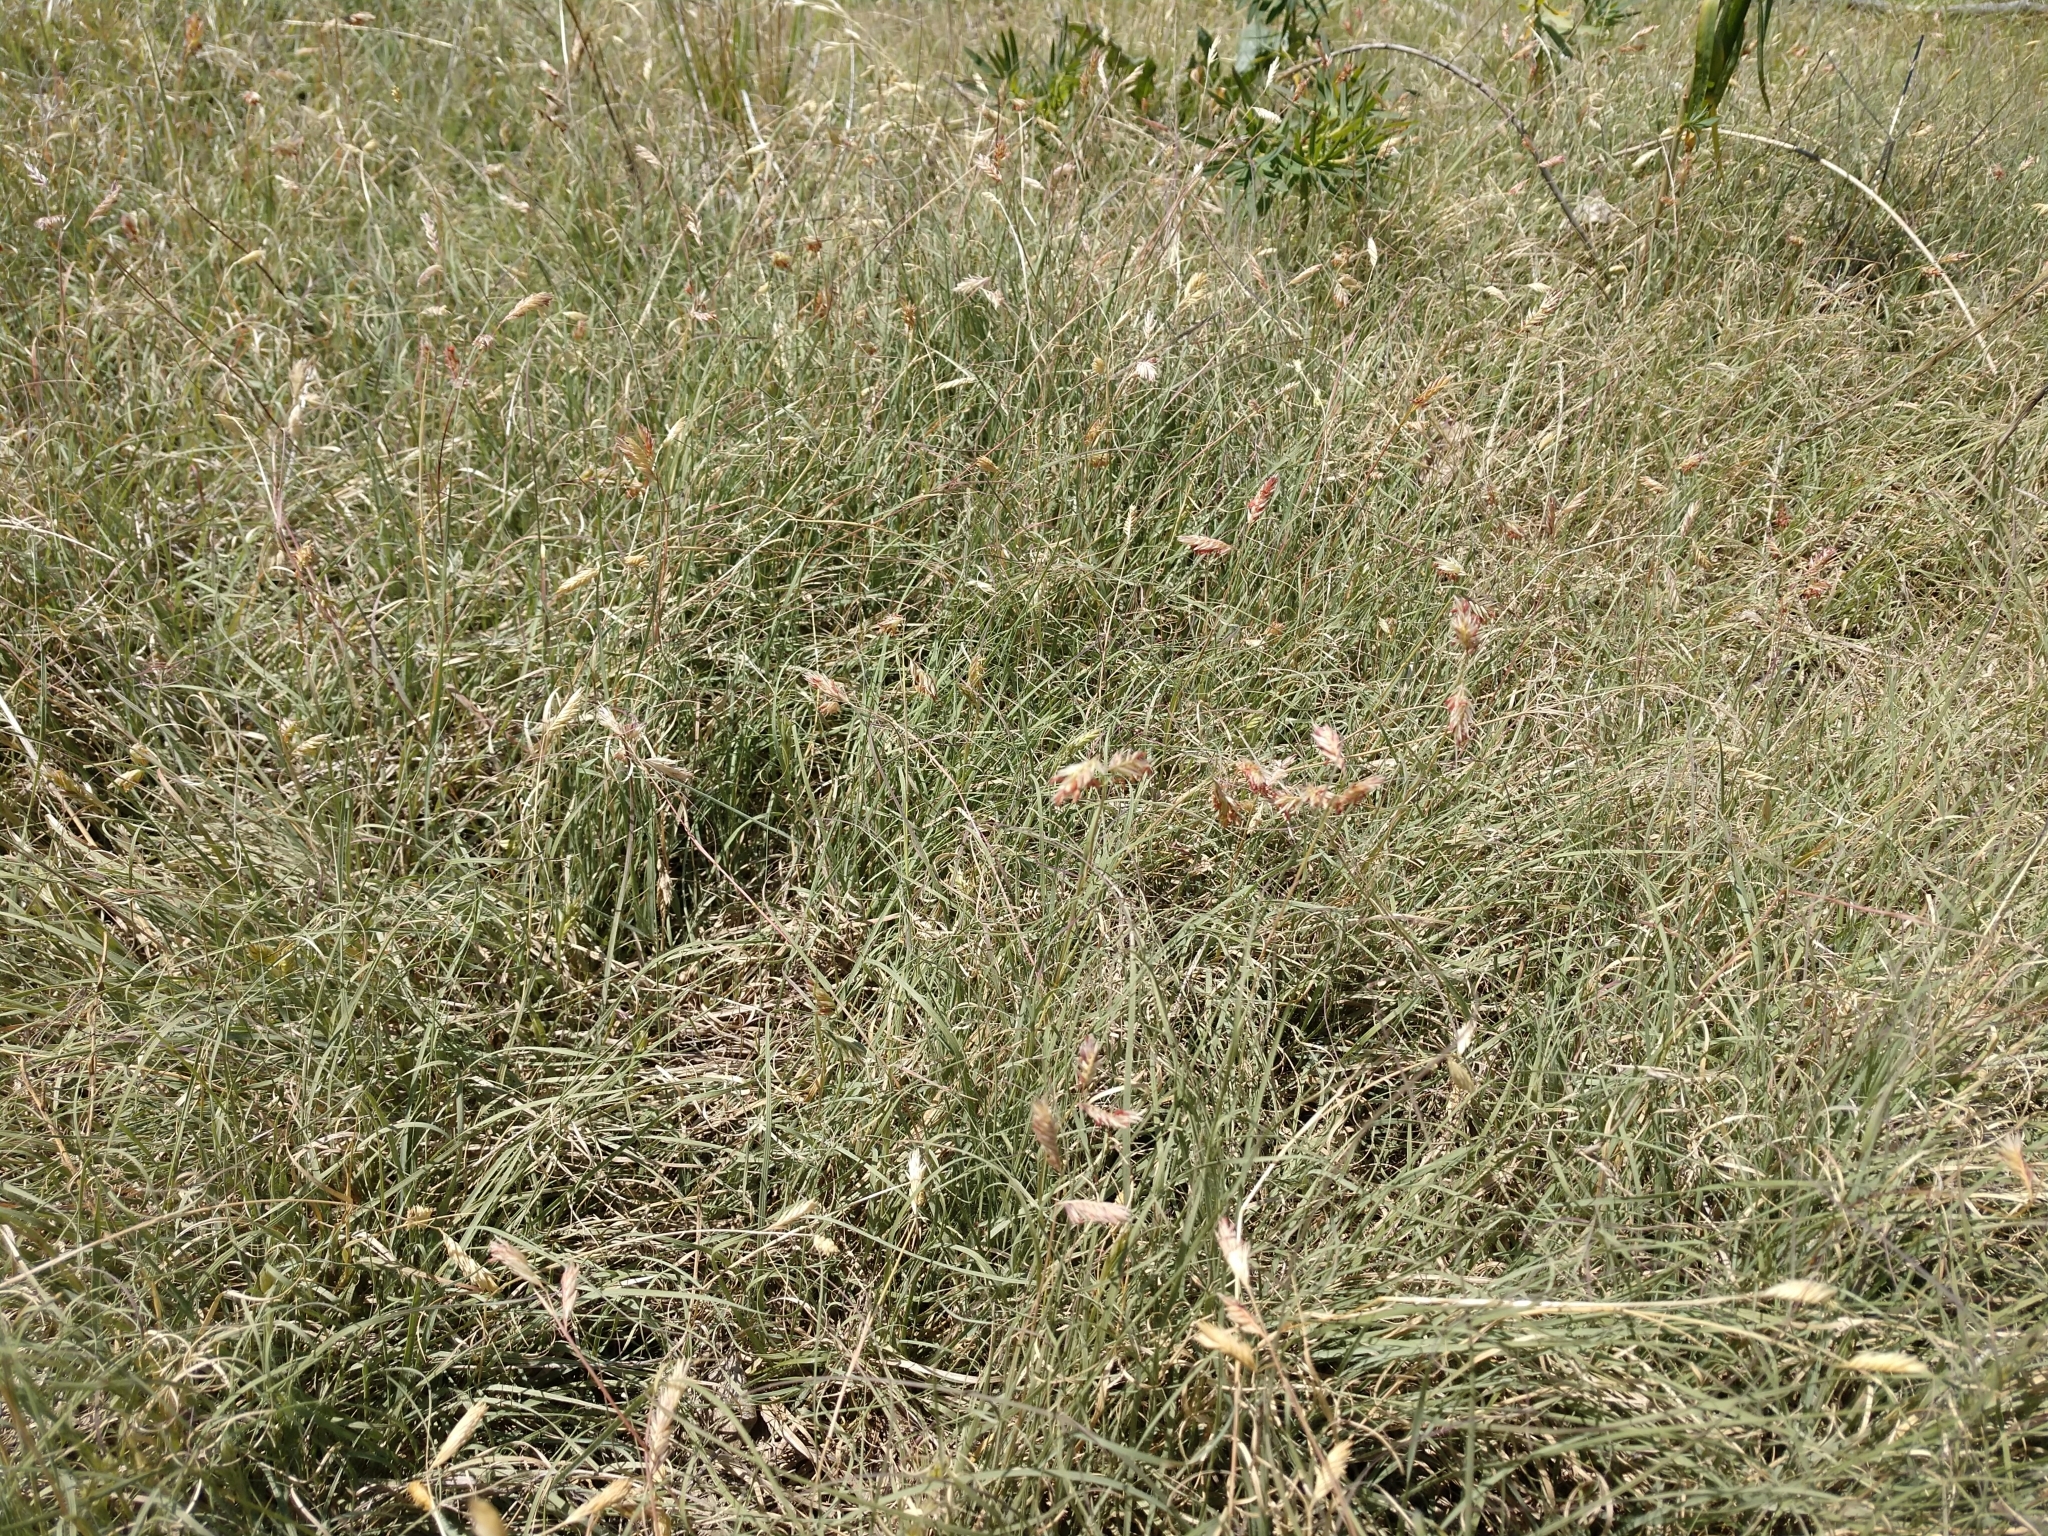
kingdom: Plantae
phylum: Tracheophyta
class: Liliopsida
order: Poales
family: Poaceae
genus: Bouteloua
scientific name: Bouteloua dactyloides
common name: Buffalo grass
